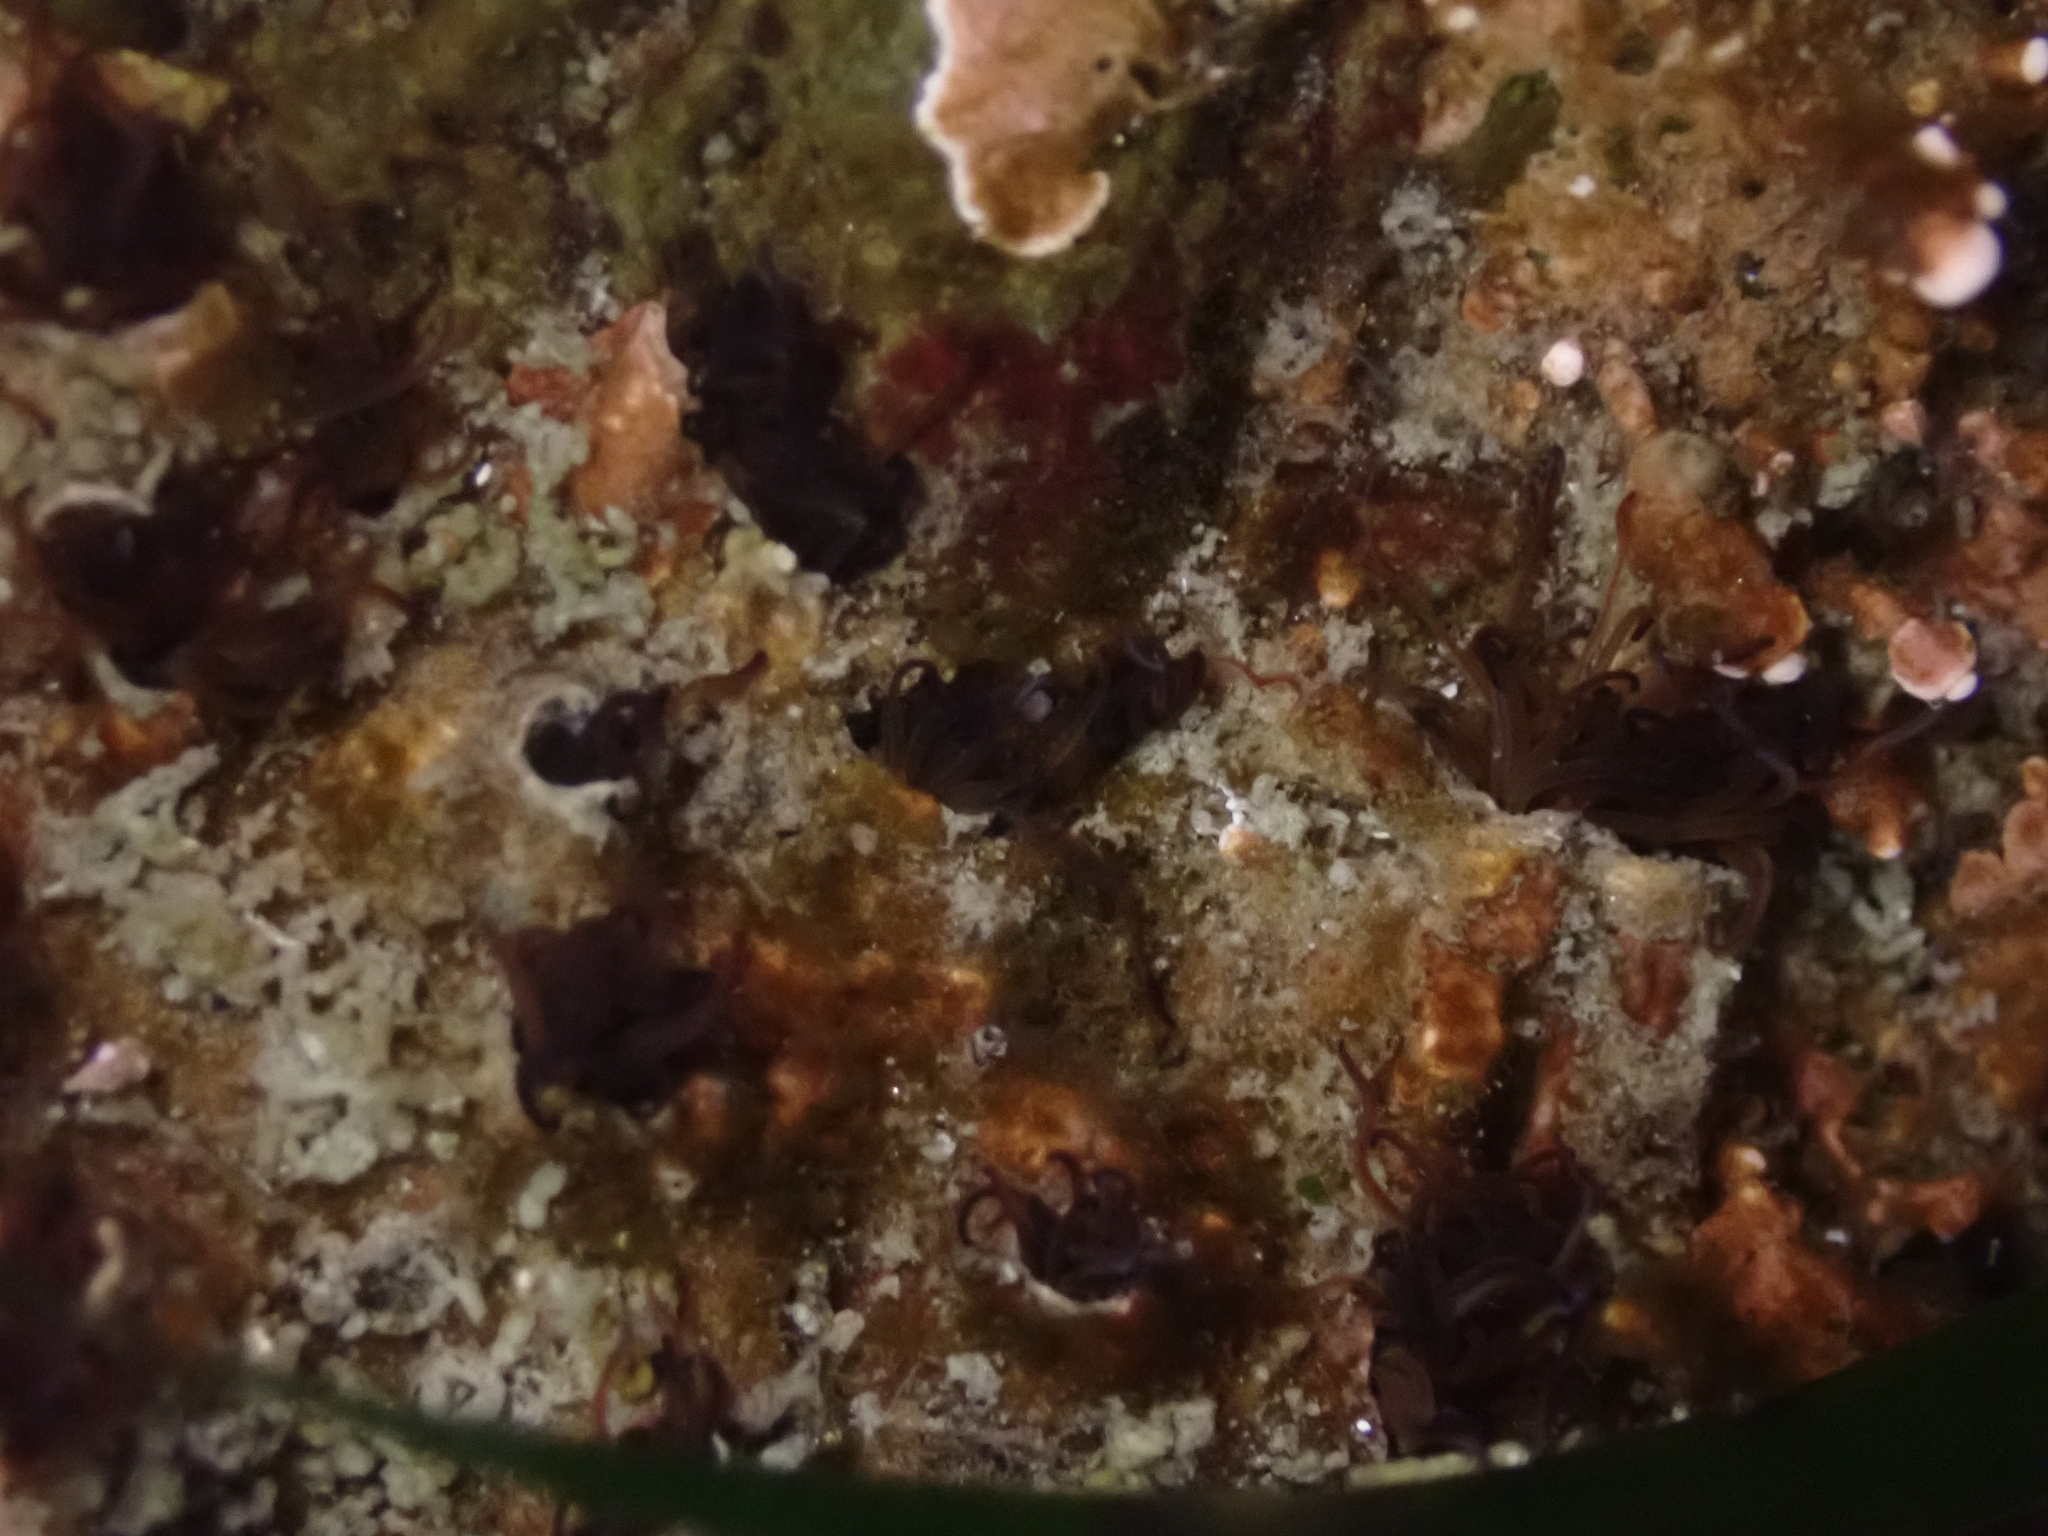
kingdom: Animalia
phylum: Annelida
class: Polychaeta
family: Cirratulidae
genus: Dodecaceria
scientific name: Dodecaceria pacifica
